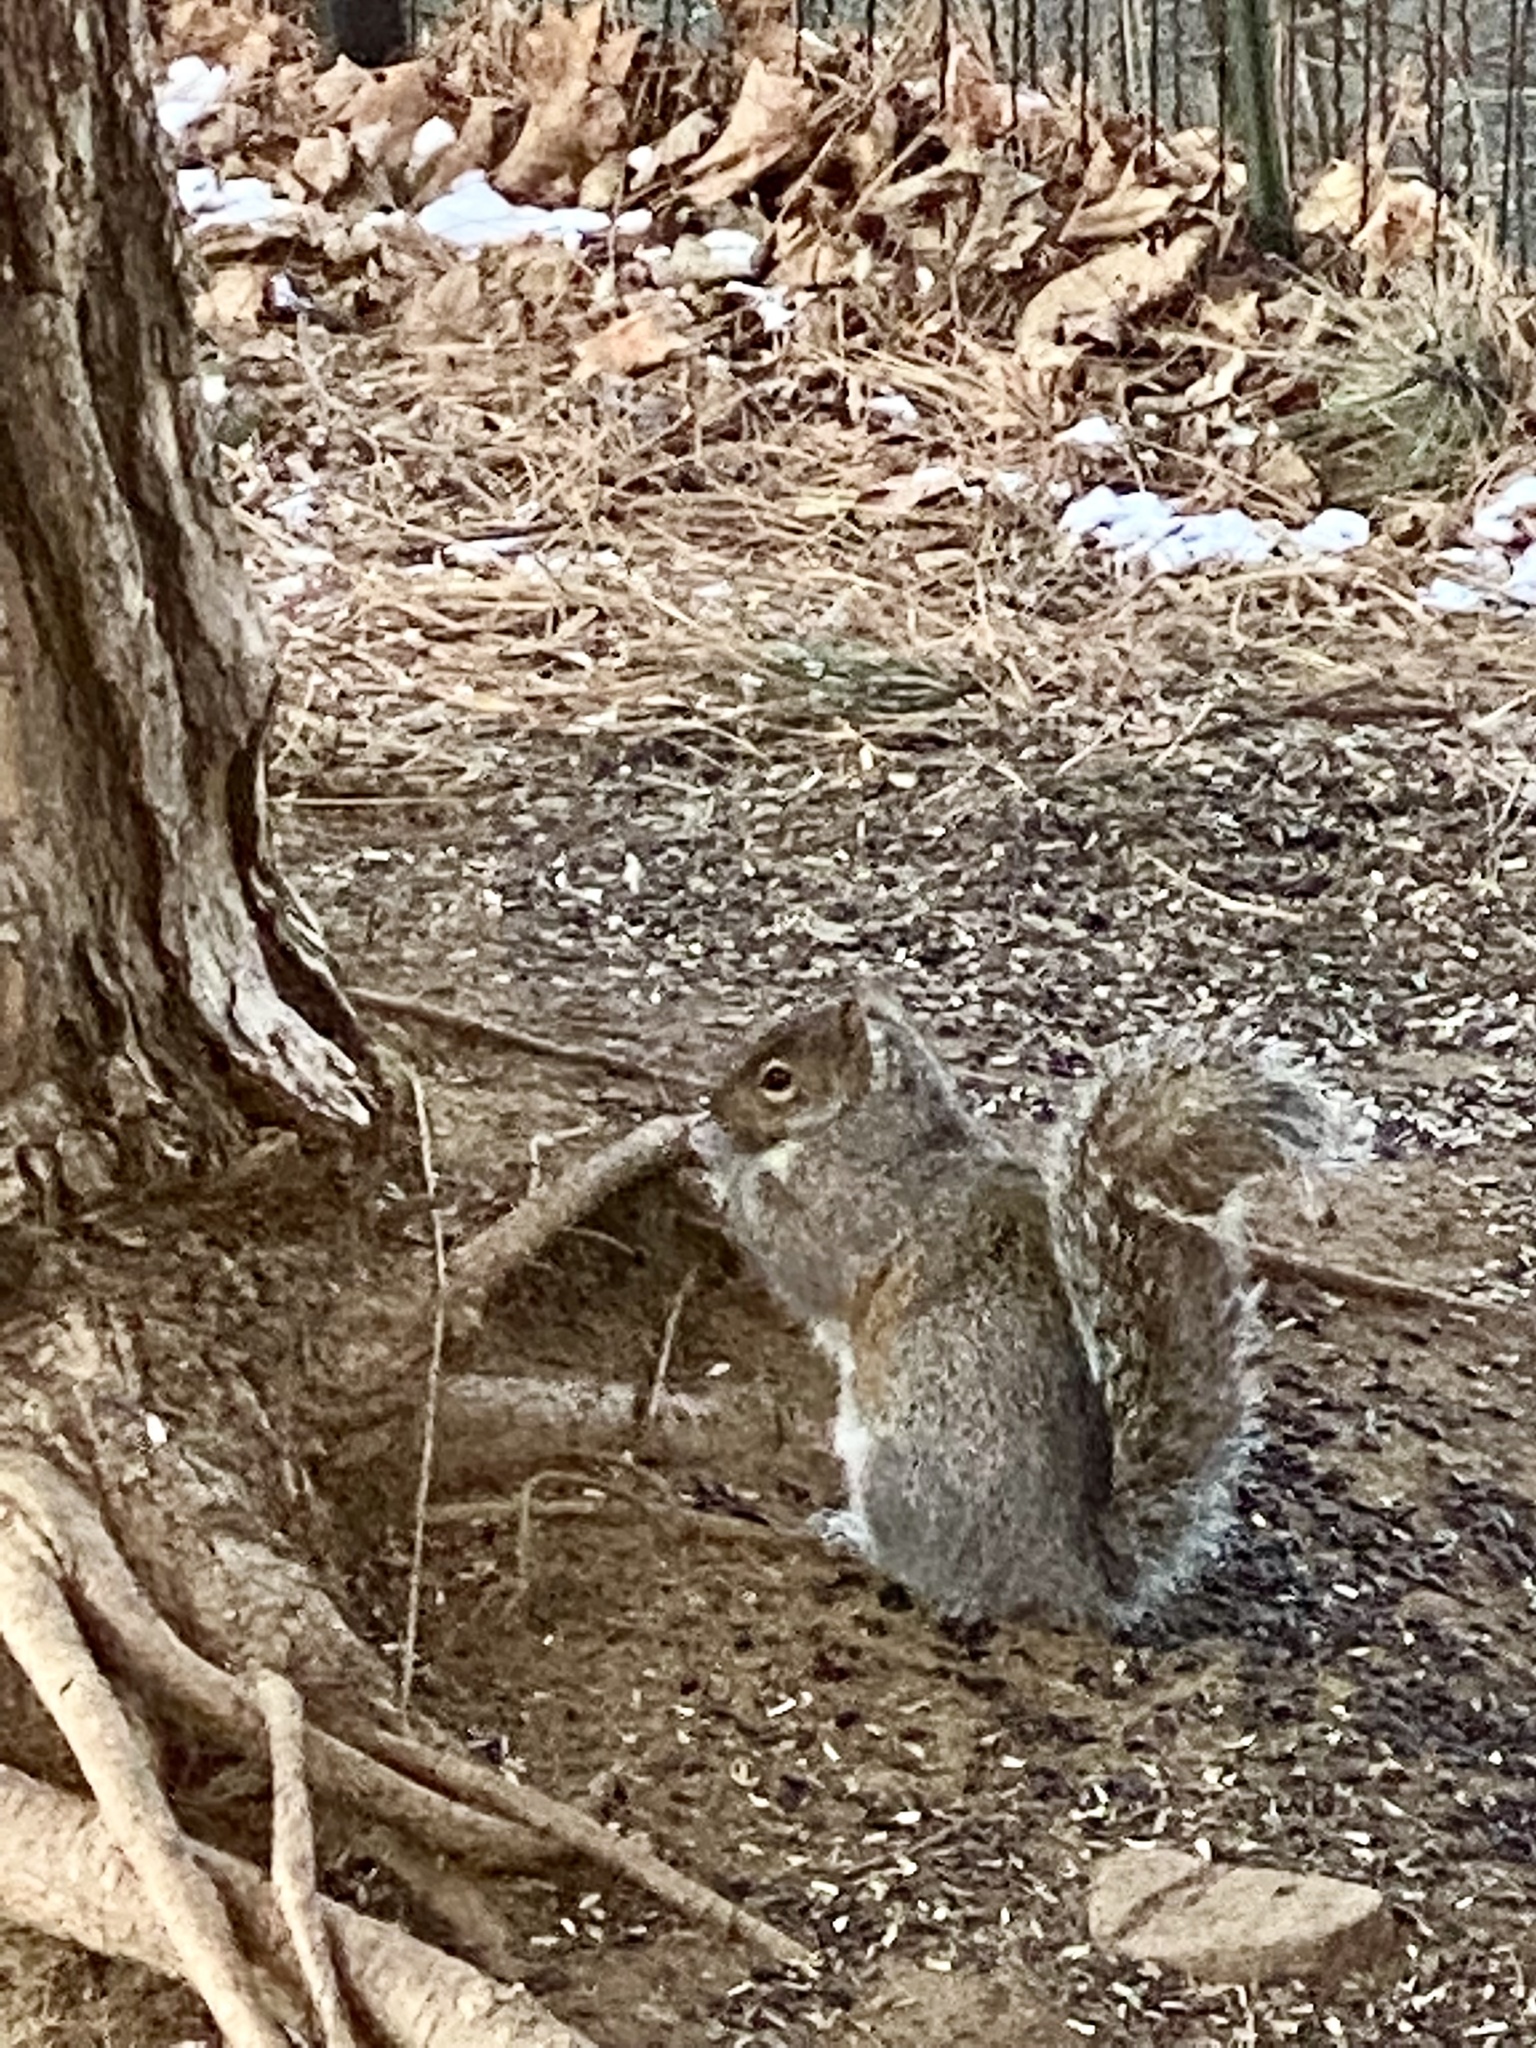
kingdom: Animalia
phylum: Chordata
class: Mammalia
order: Rodentia
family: Sciuridae
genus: Sciurus
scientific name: Sciurus carolinensis
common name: Eastern gray squirrel
